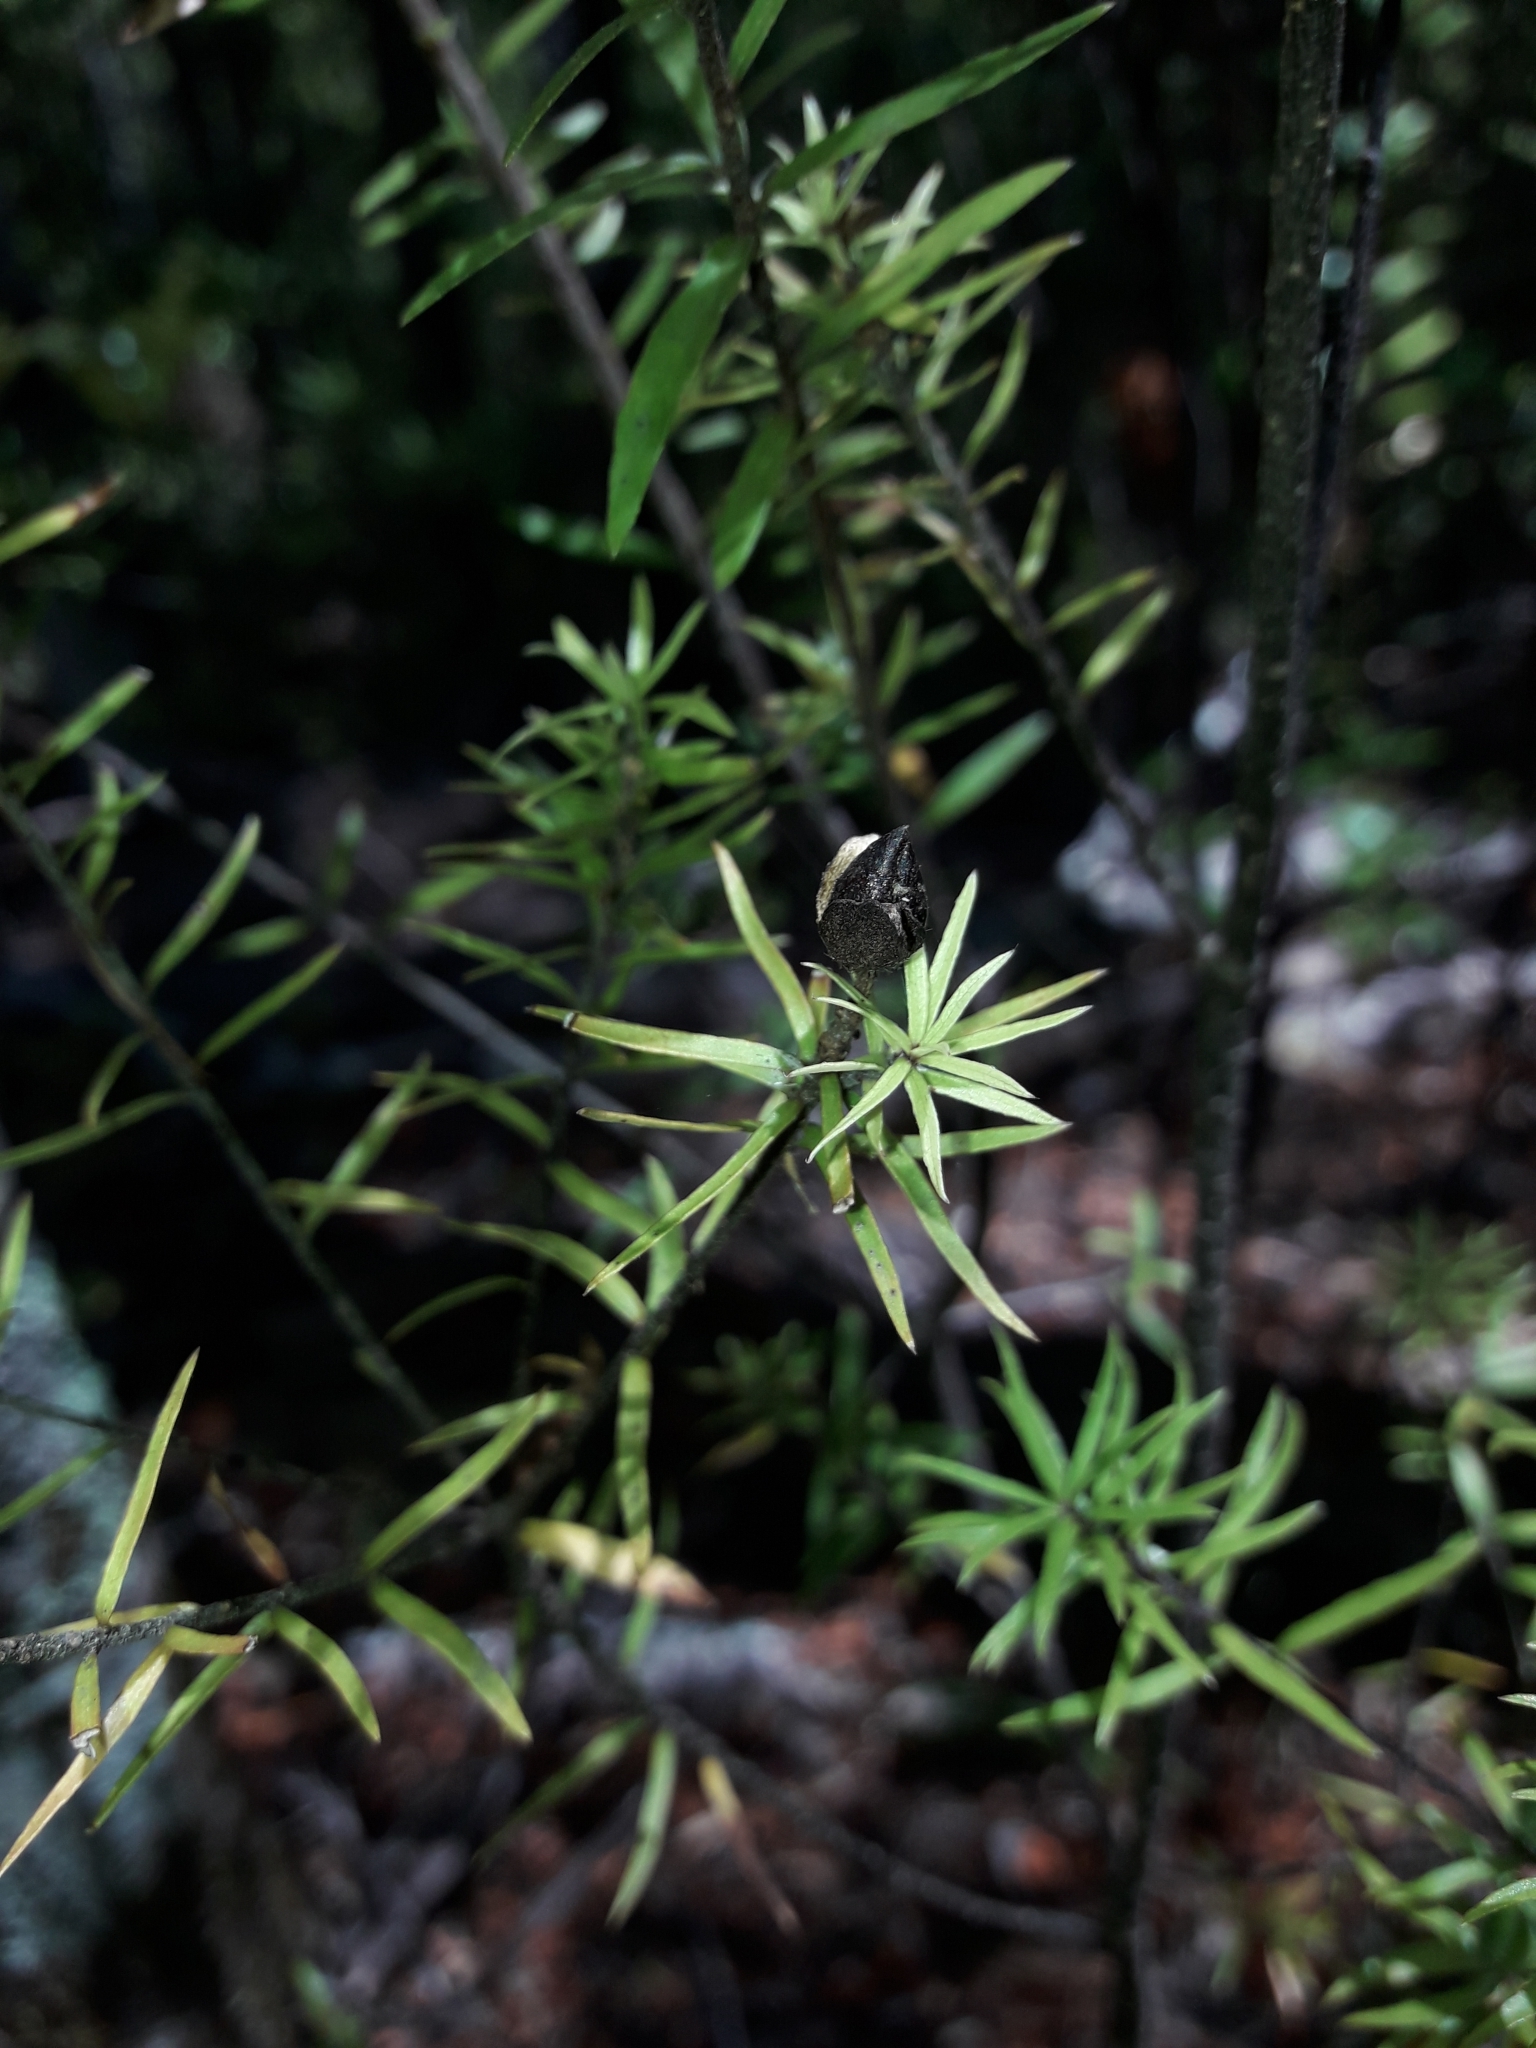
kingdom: Plantae
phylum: Tracheophyta
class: Magnoliopsida
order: Apiales
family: Pittosporaceae
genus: Pittosporum
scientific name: Pittosporum pimeleoides
